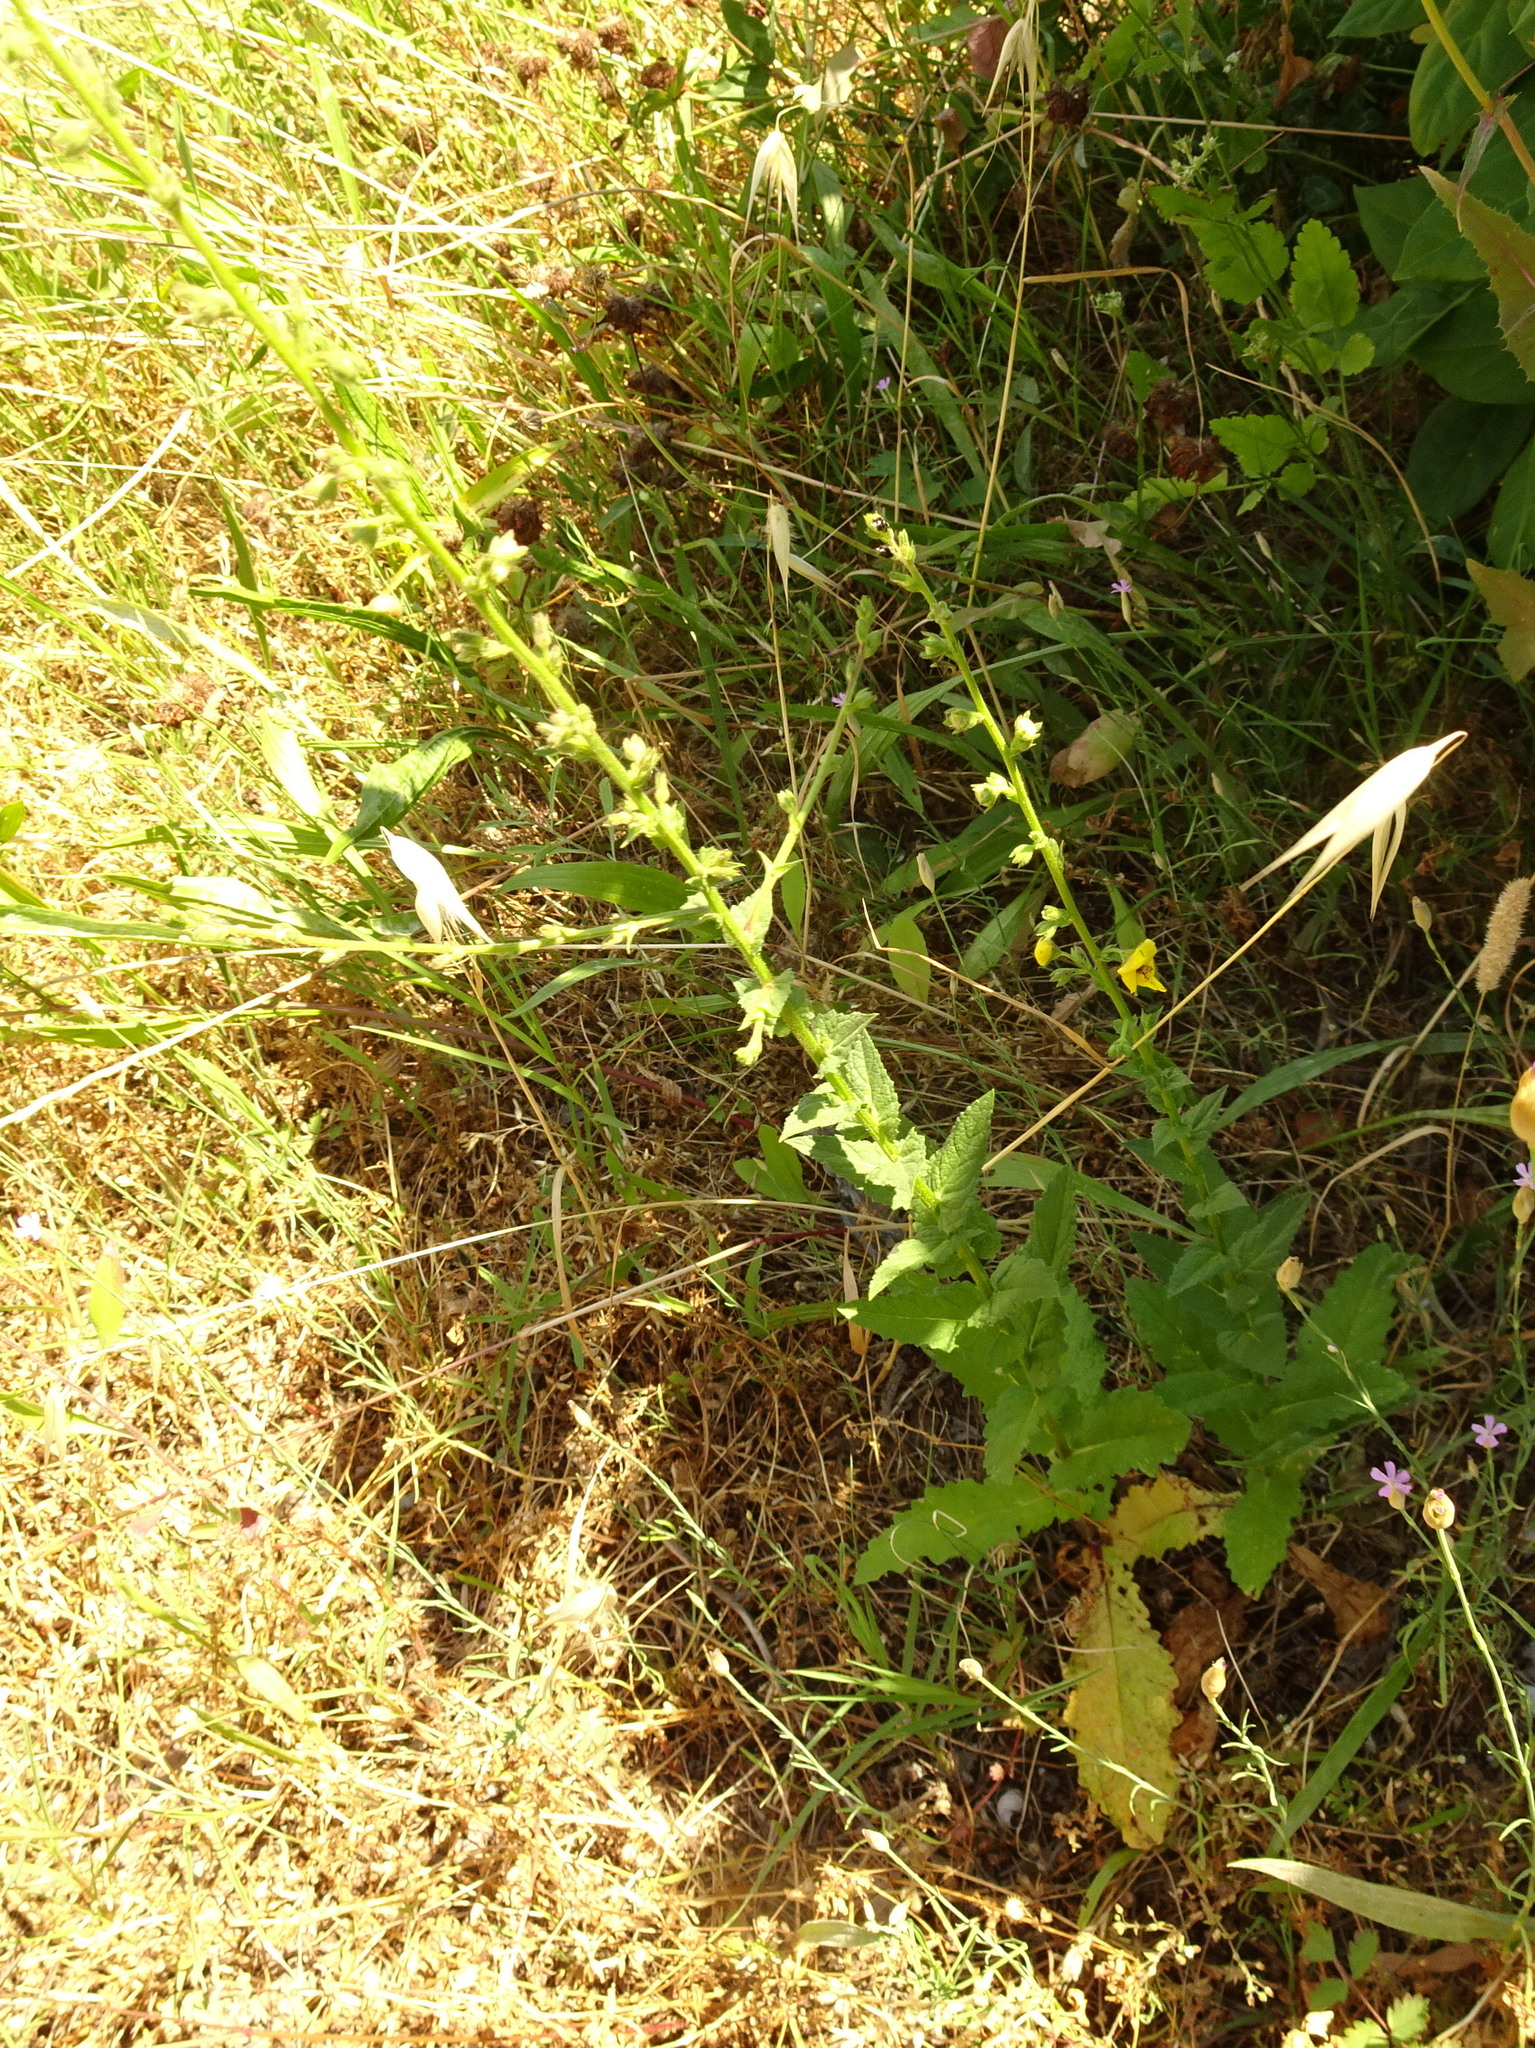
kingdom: Plantae
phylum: Tracheophyta
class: Magnoliopsida
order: Lamiales
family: Scrophulariaceae
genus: Verbascum
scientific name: Verbascum blattaria
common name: Moth mullein
